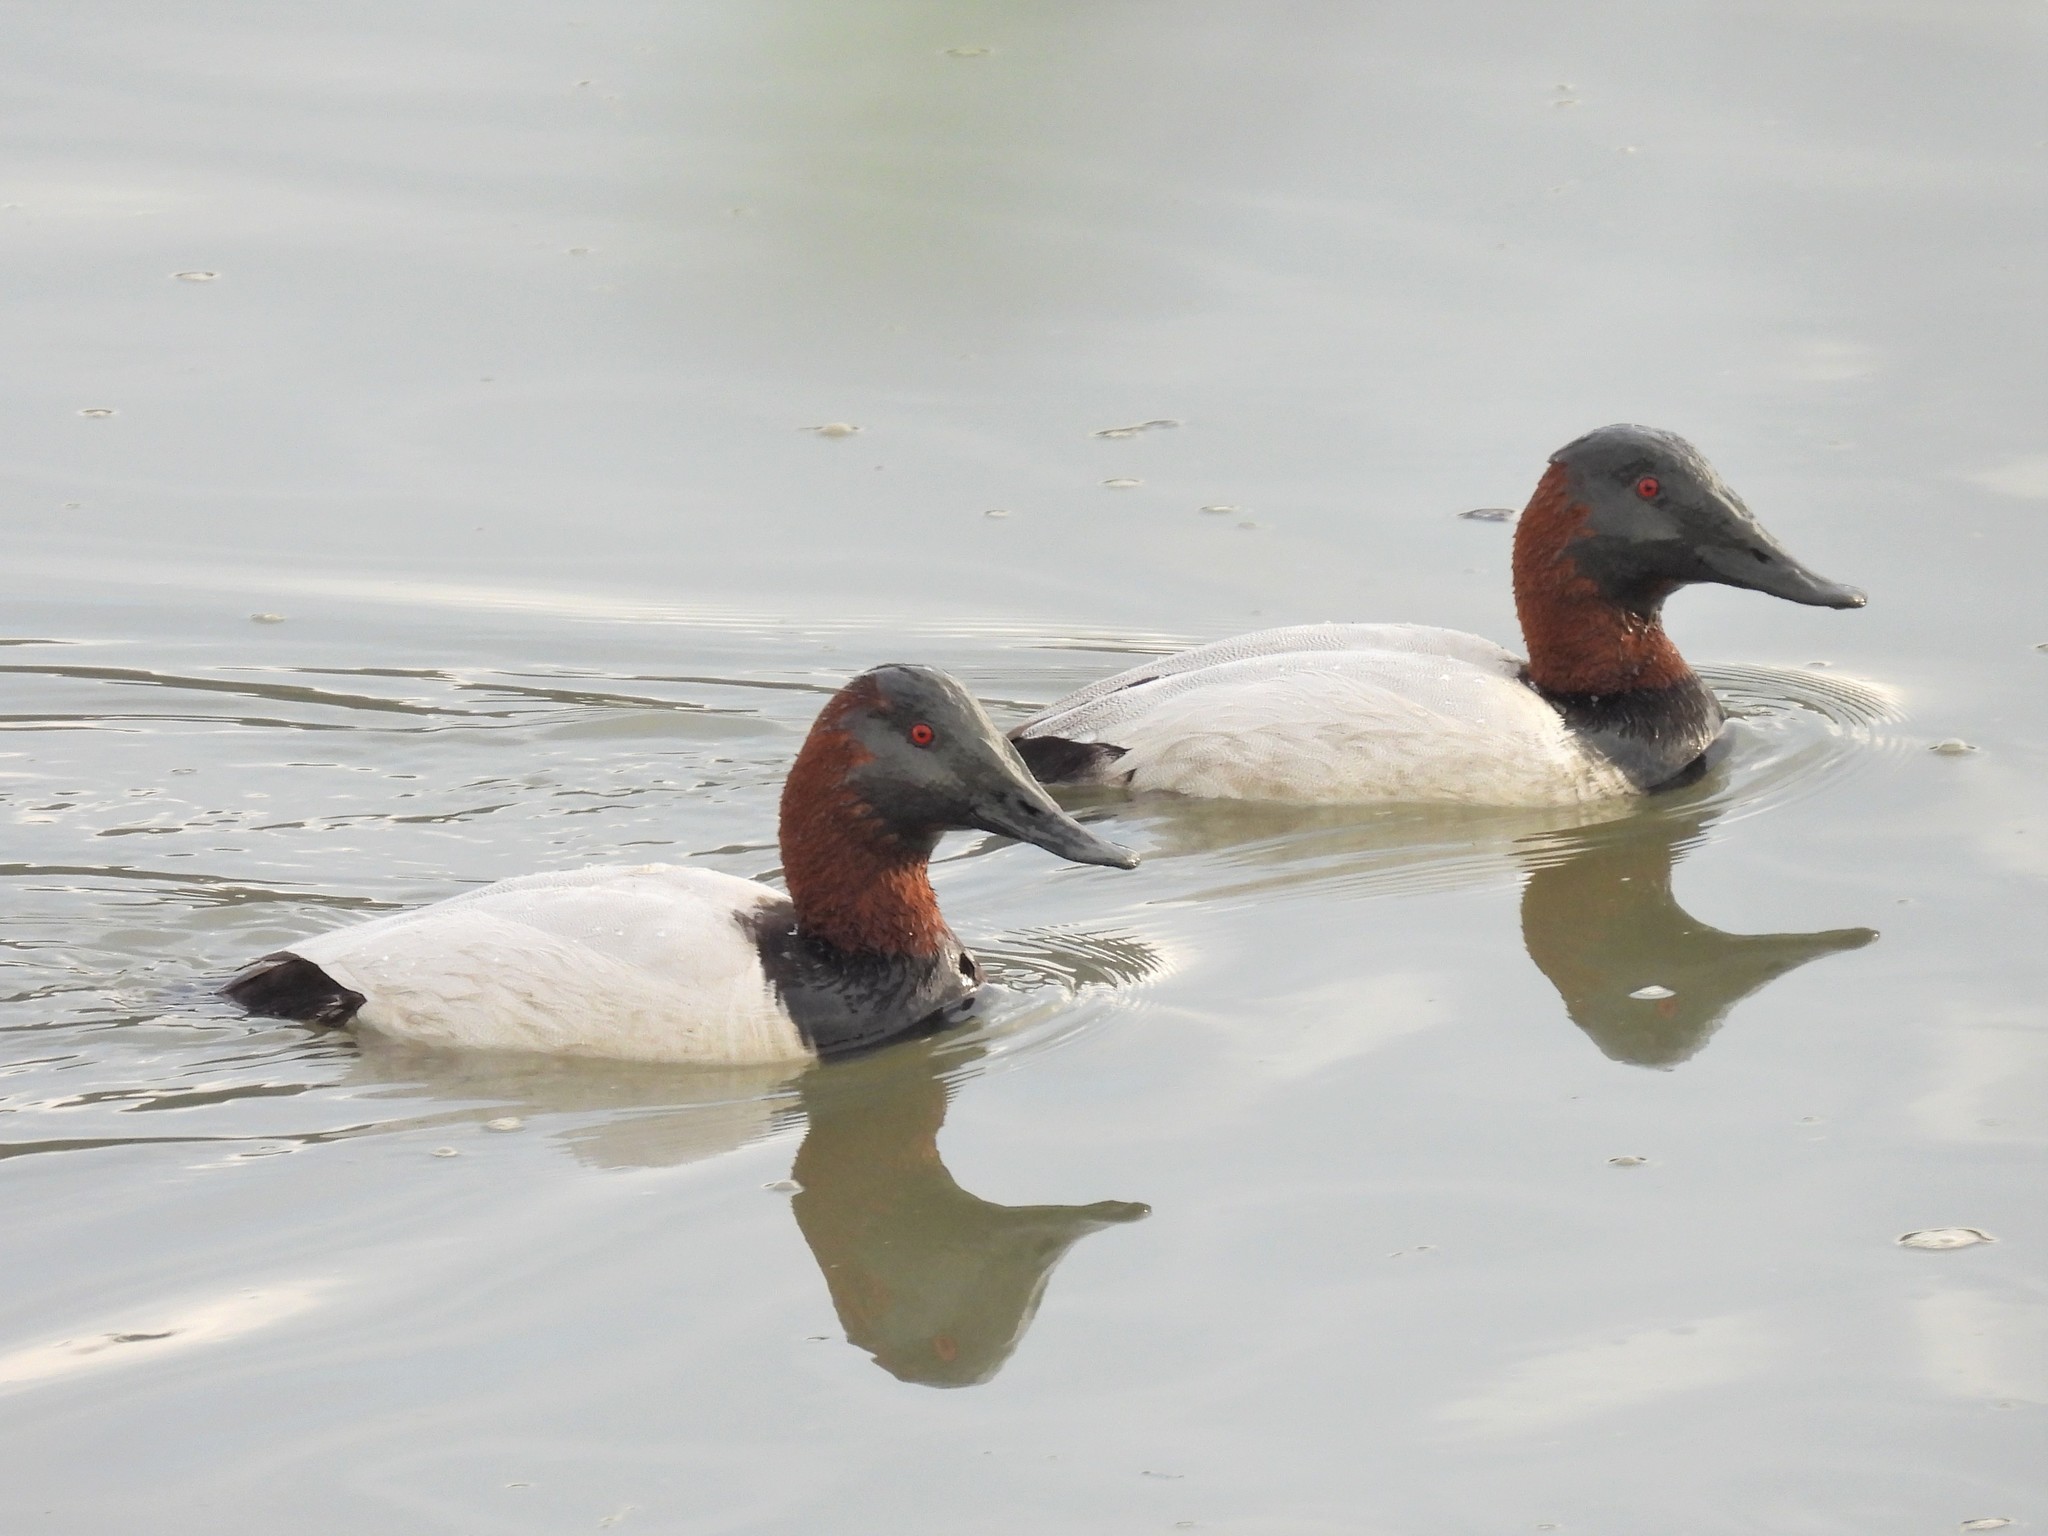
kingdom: Animalia
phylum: Chordata
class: Aves
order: Anseriformes
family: Anatidae
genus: Aythya
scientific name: Aythya valisineria
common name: Canvasback
